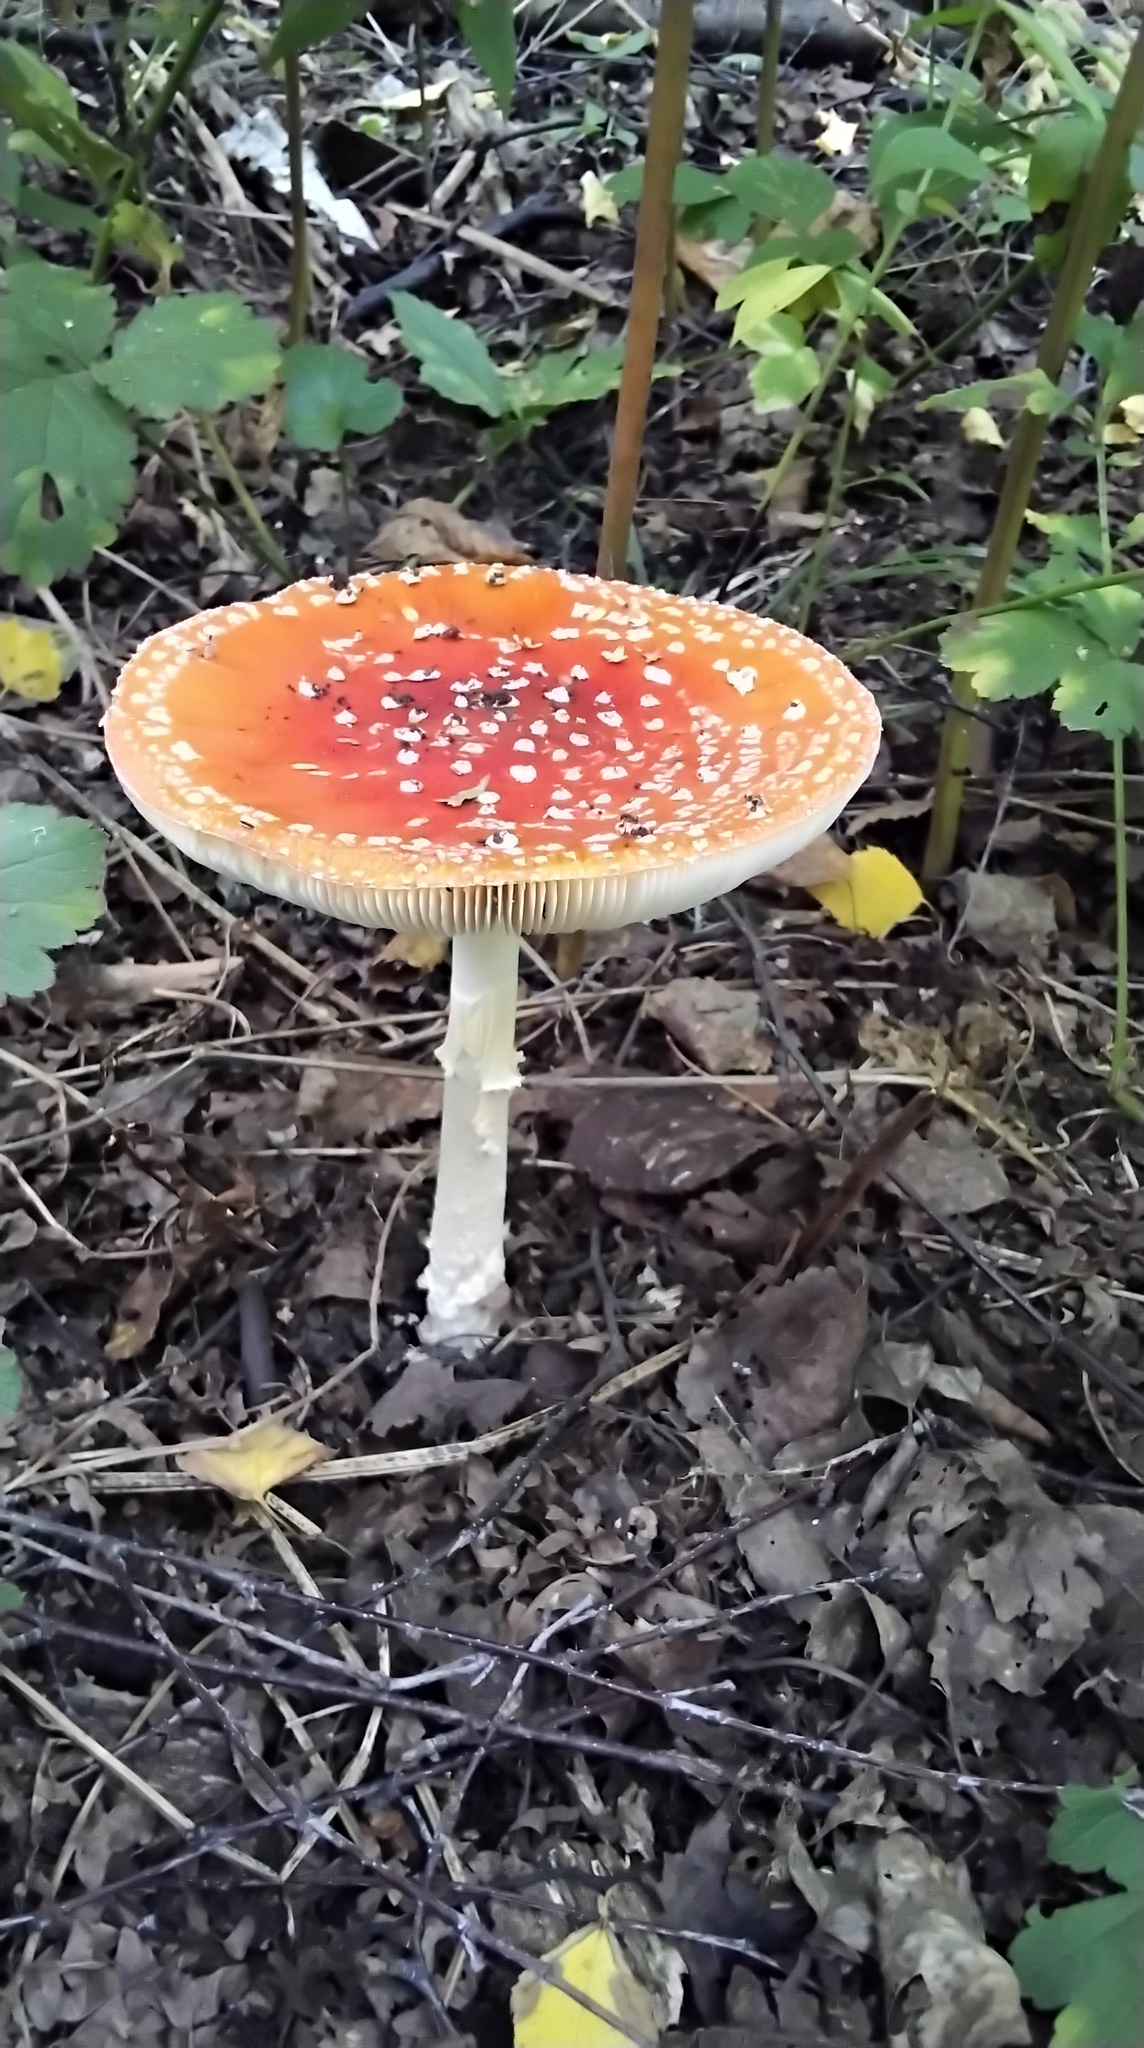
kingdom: Fungi
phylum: Basidiomycota
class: Agaricomycetes
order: Agaricales
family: Amanitaceae
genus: Amanita
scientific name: Amanita muscaria
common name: Fly agaric
